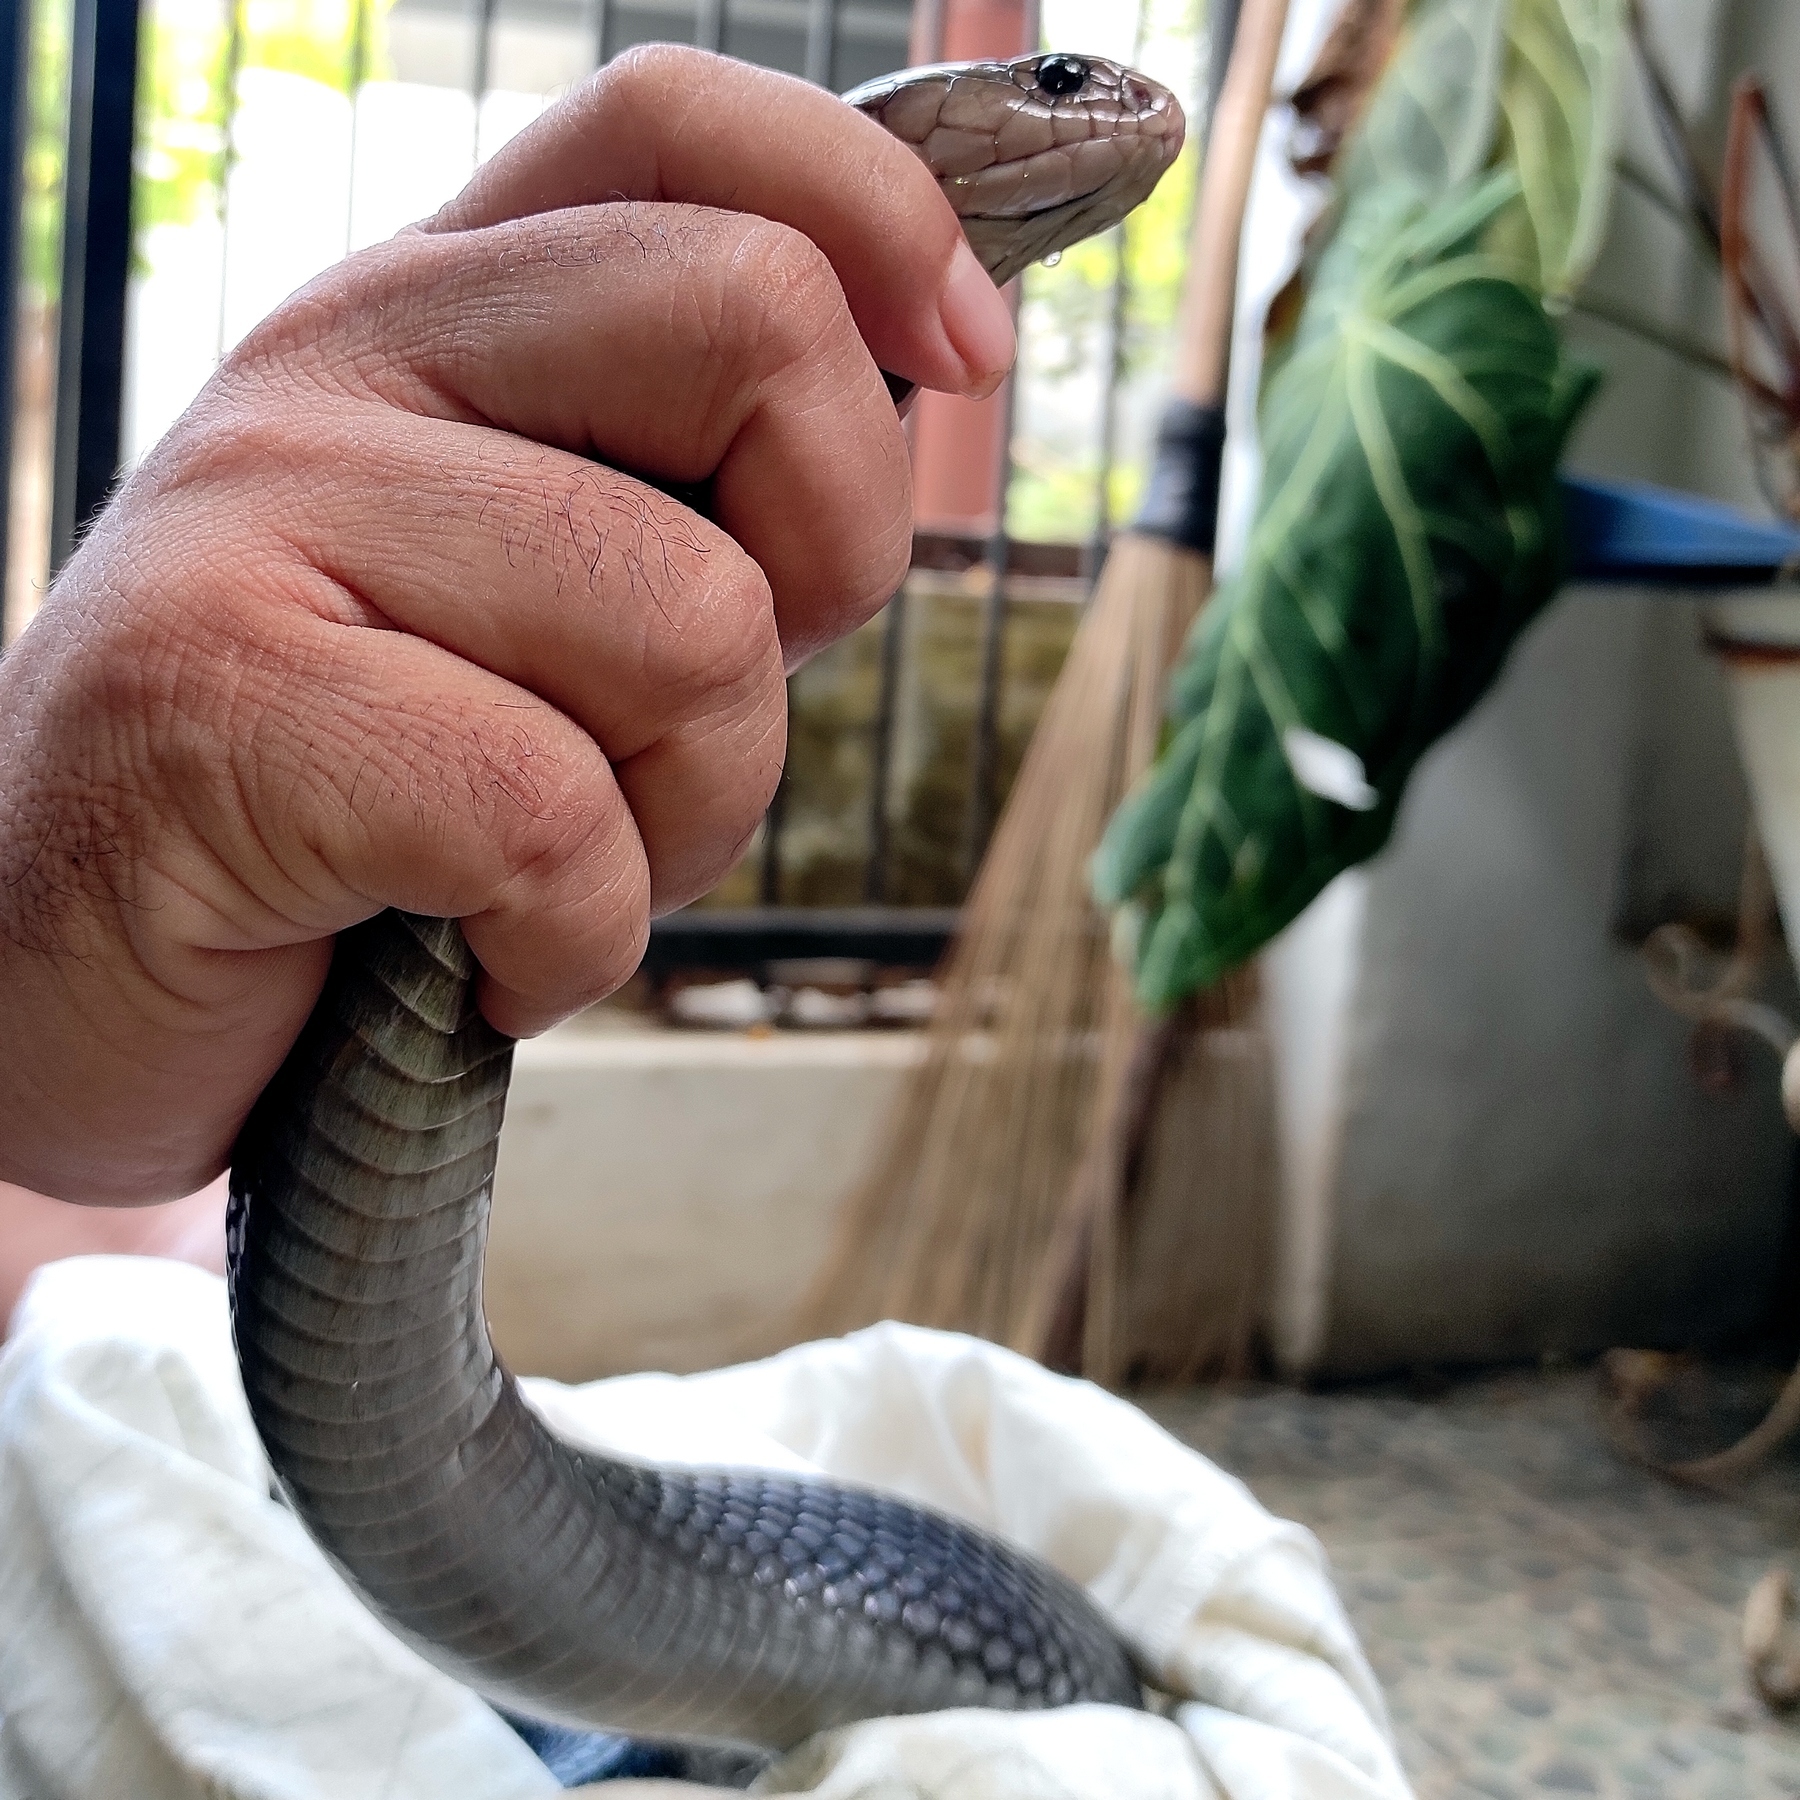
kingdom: Animalia
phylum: Chordata
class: Squamata
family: Elapidae
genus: Naja
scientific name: Naja sputatrix
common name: Javan spitting cobra
